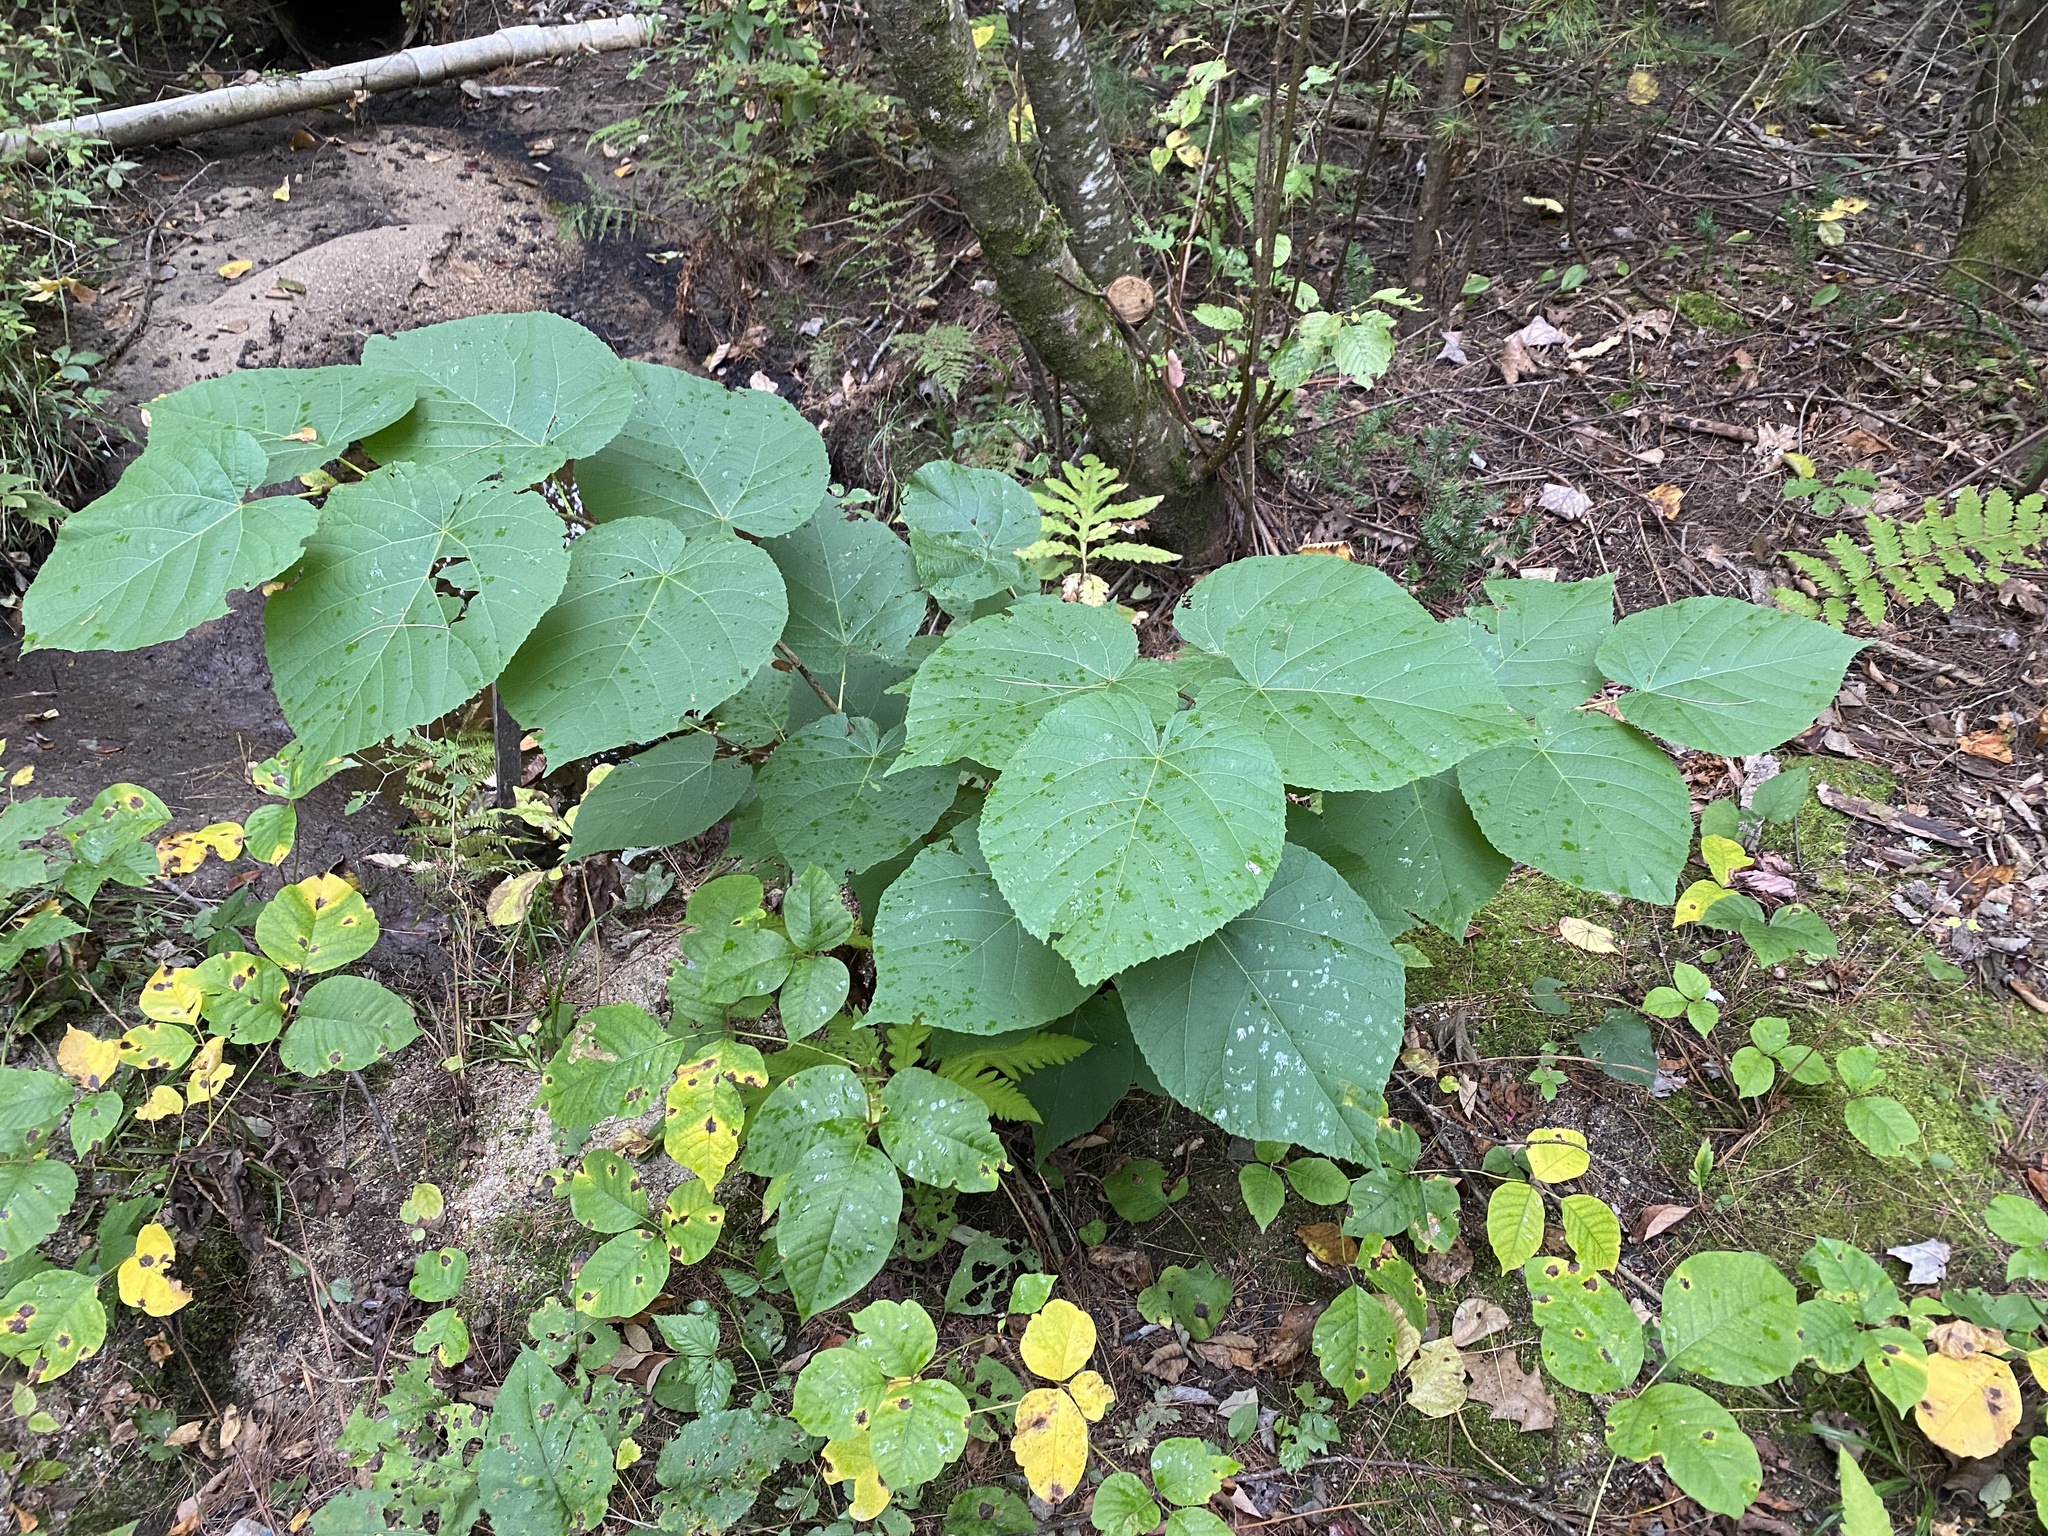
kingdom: Plantae
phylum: Tracheophyta
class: Magnoliopsida
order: Malvales
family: Malvaceae
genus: Tilia
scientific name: Tilia americana
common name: Basswood
